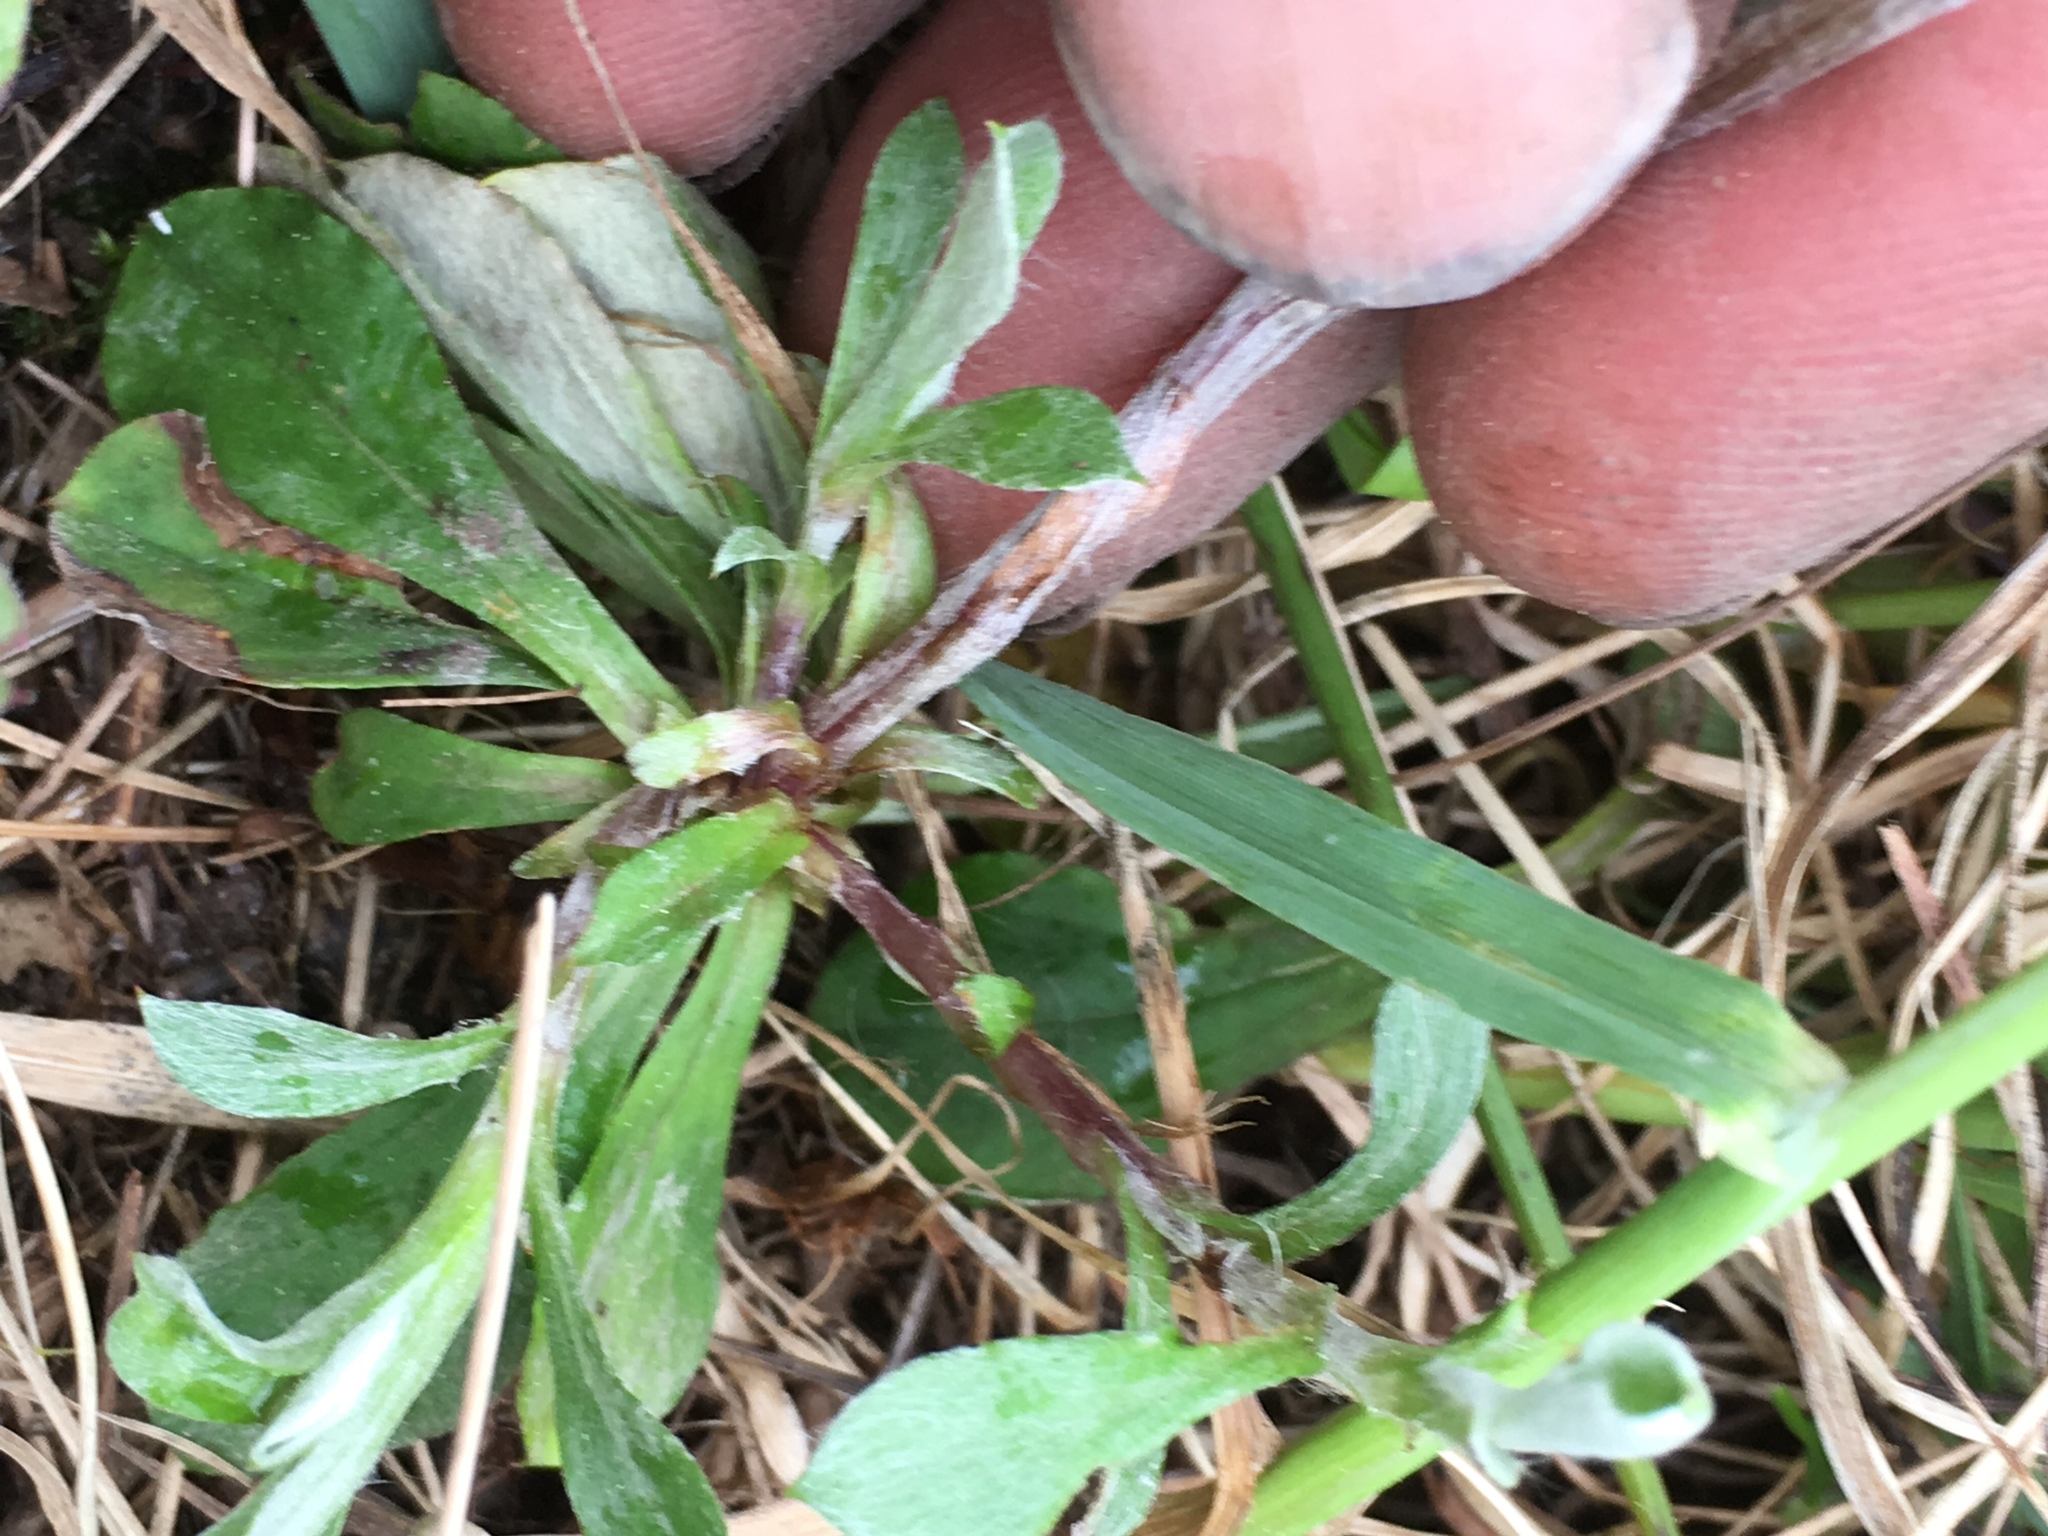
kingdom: Plantae
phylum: Tracheophyta
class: Magnoliopsida
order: Asterales
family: Asteraceae
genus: Antennaria
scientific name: Antennaria howellii
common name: Howell's pussytoes
